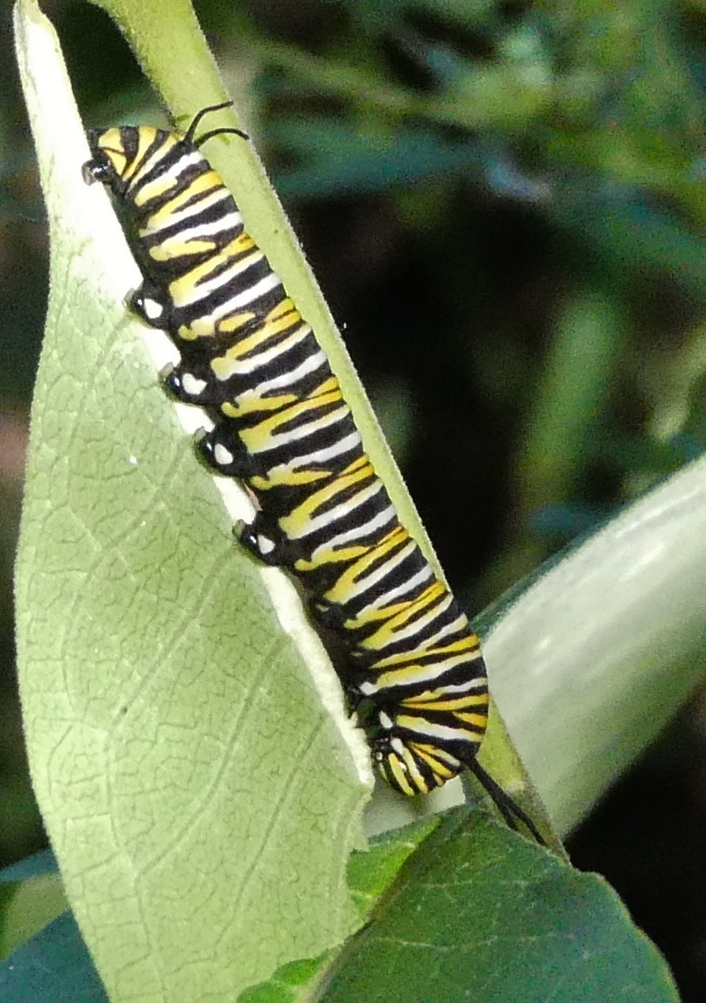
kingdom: Animalia
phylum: Arthropoda
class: Insecta
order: Lepidoptera
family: Nymphalidae
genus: Danaus
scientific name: Danaus plexippus
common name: Monarch
